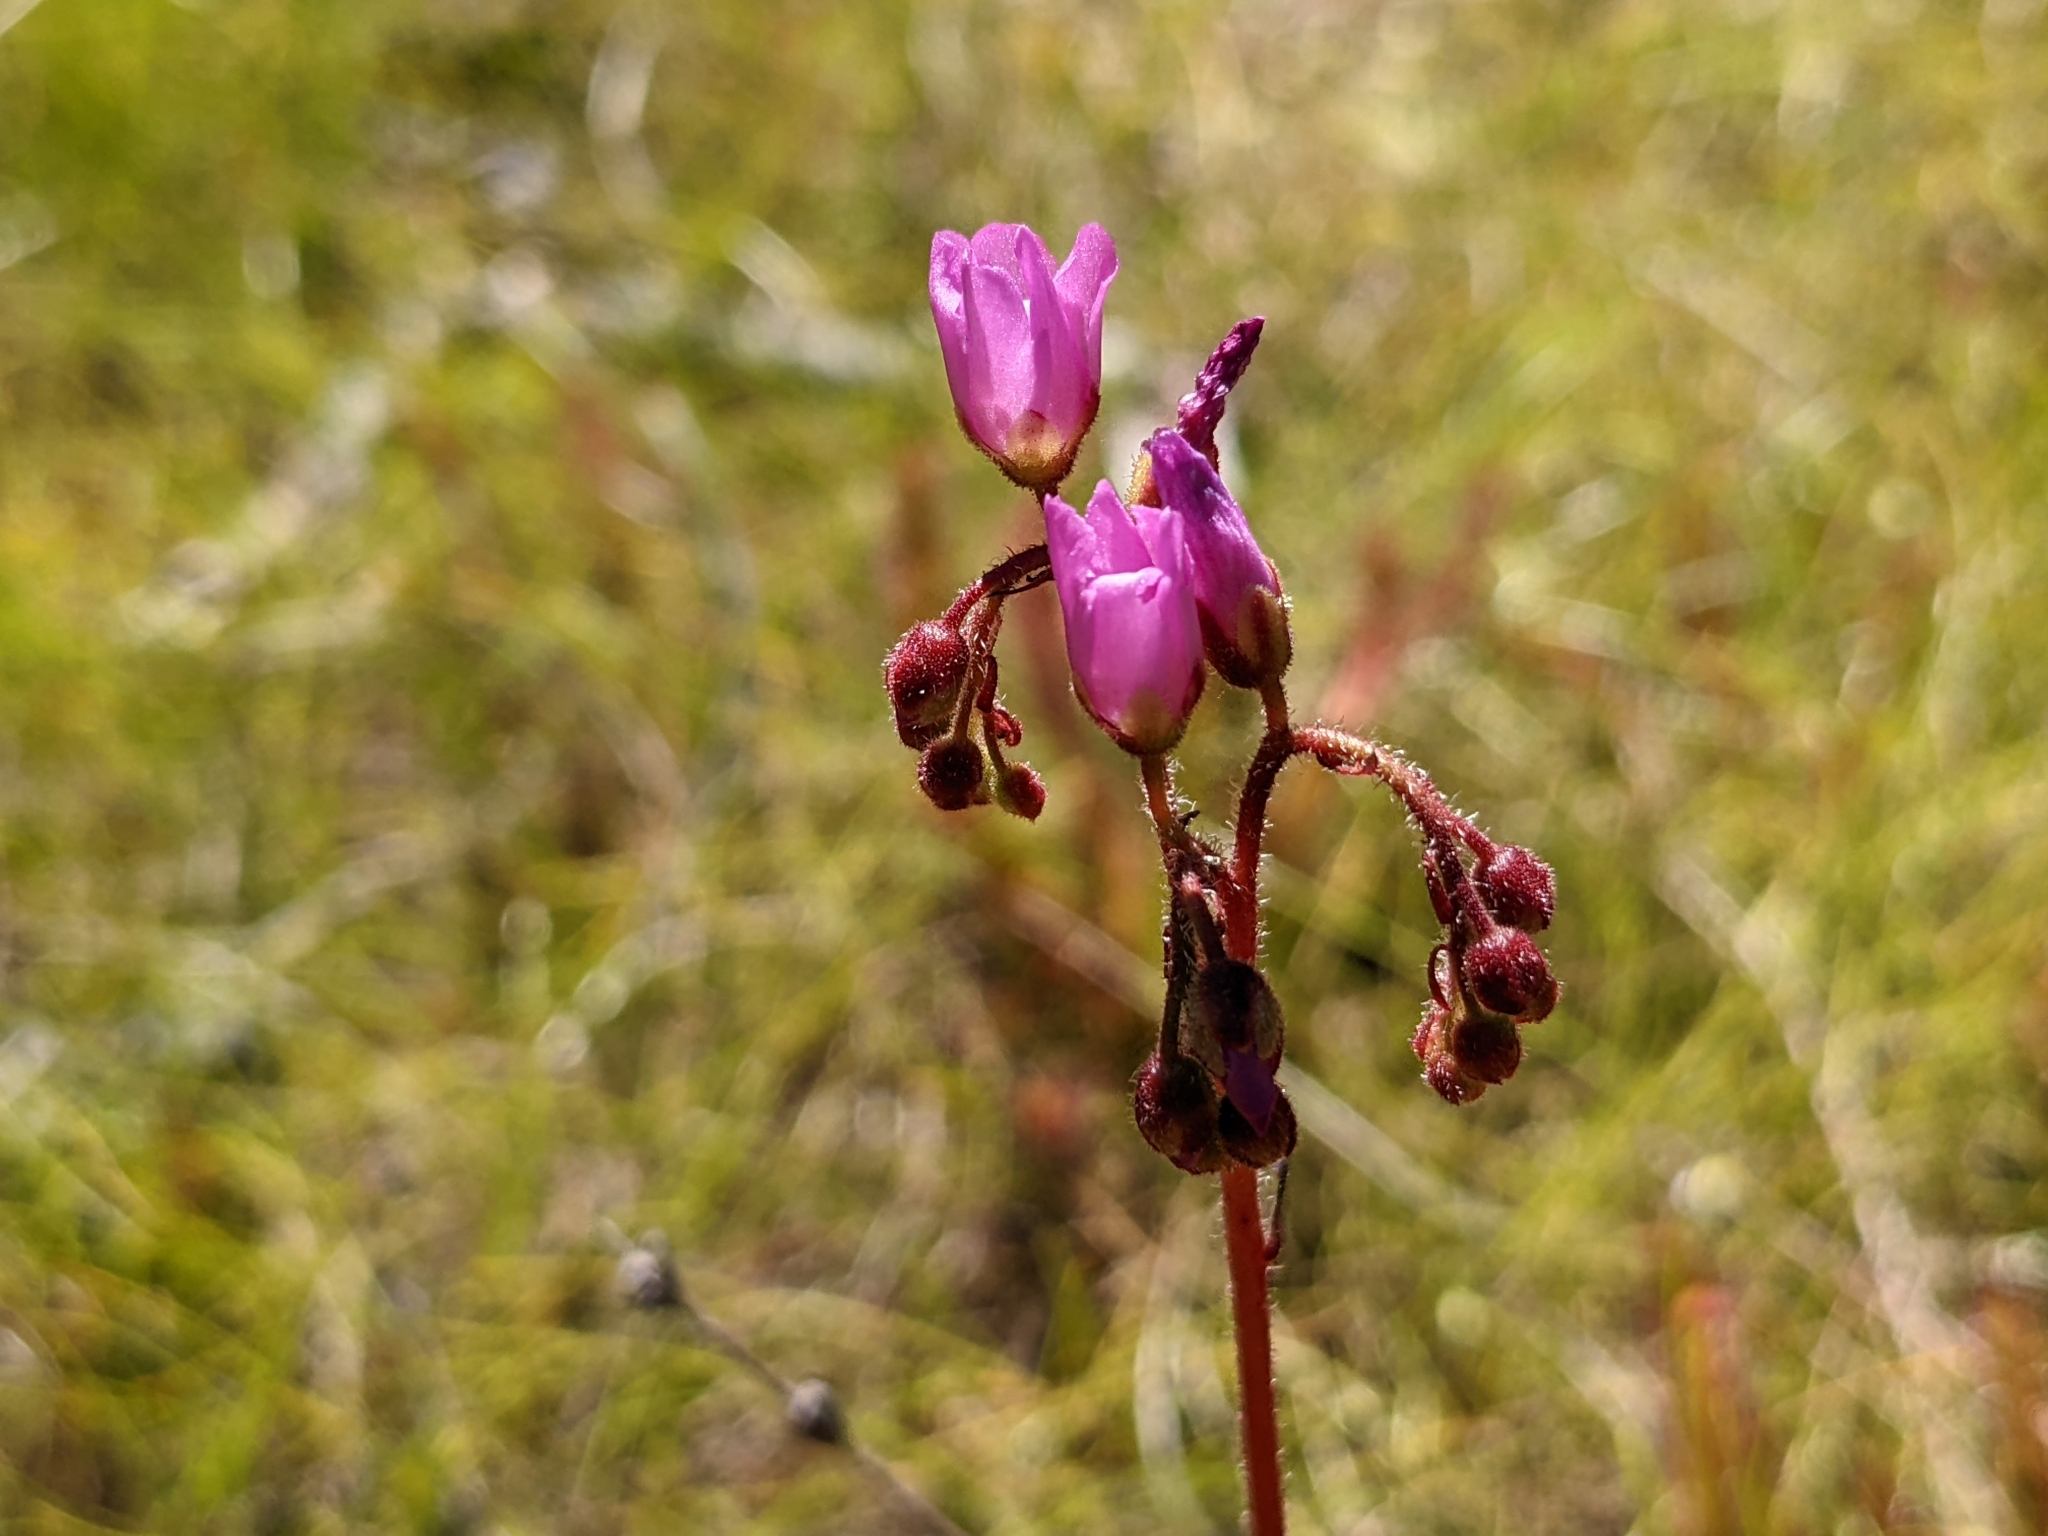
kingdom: Plantae
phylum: Tracheophyta
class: Magnoliopsida
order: Caryophyllales
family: Droseraceae
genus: Drosera
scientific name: Drosera capensis
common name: Cape sundew
